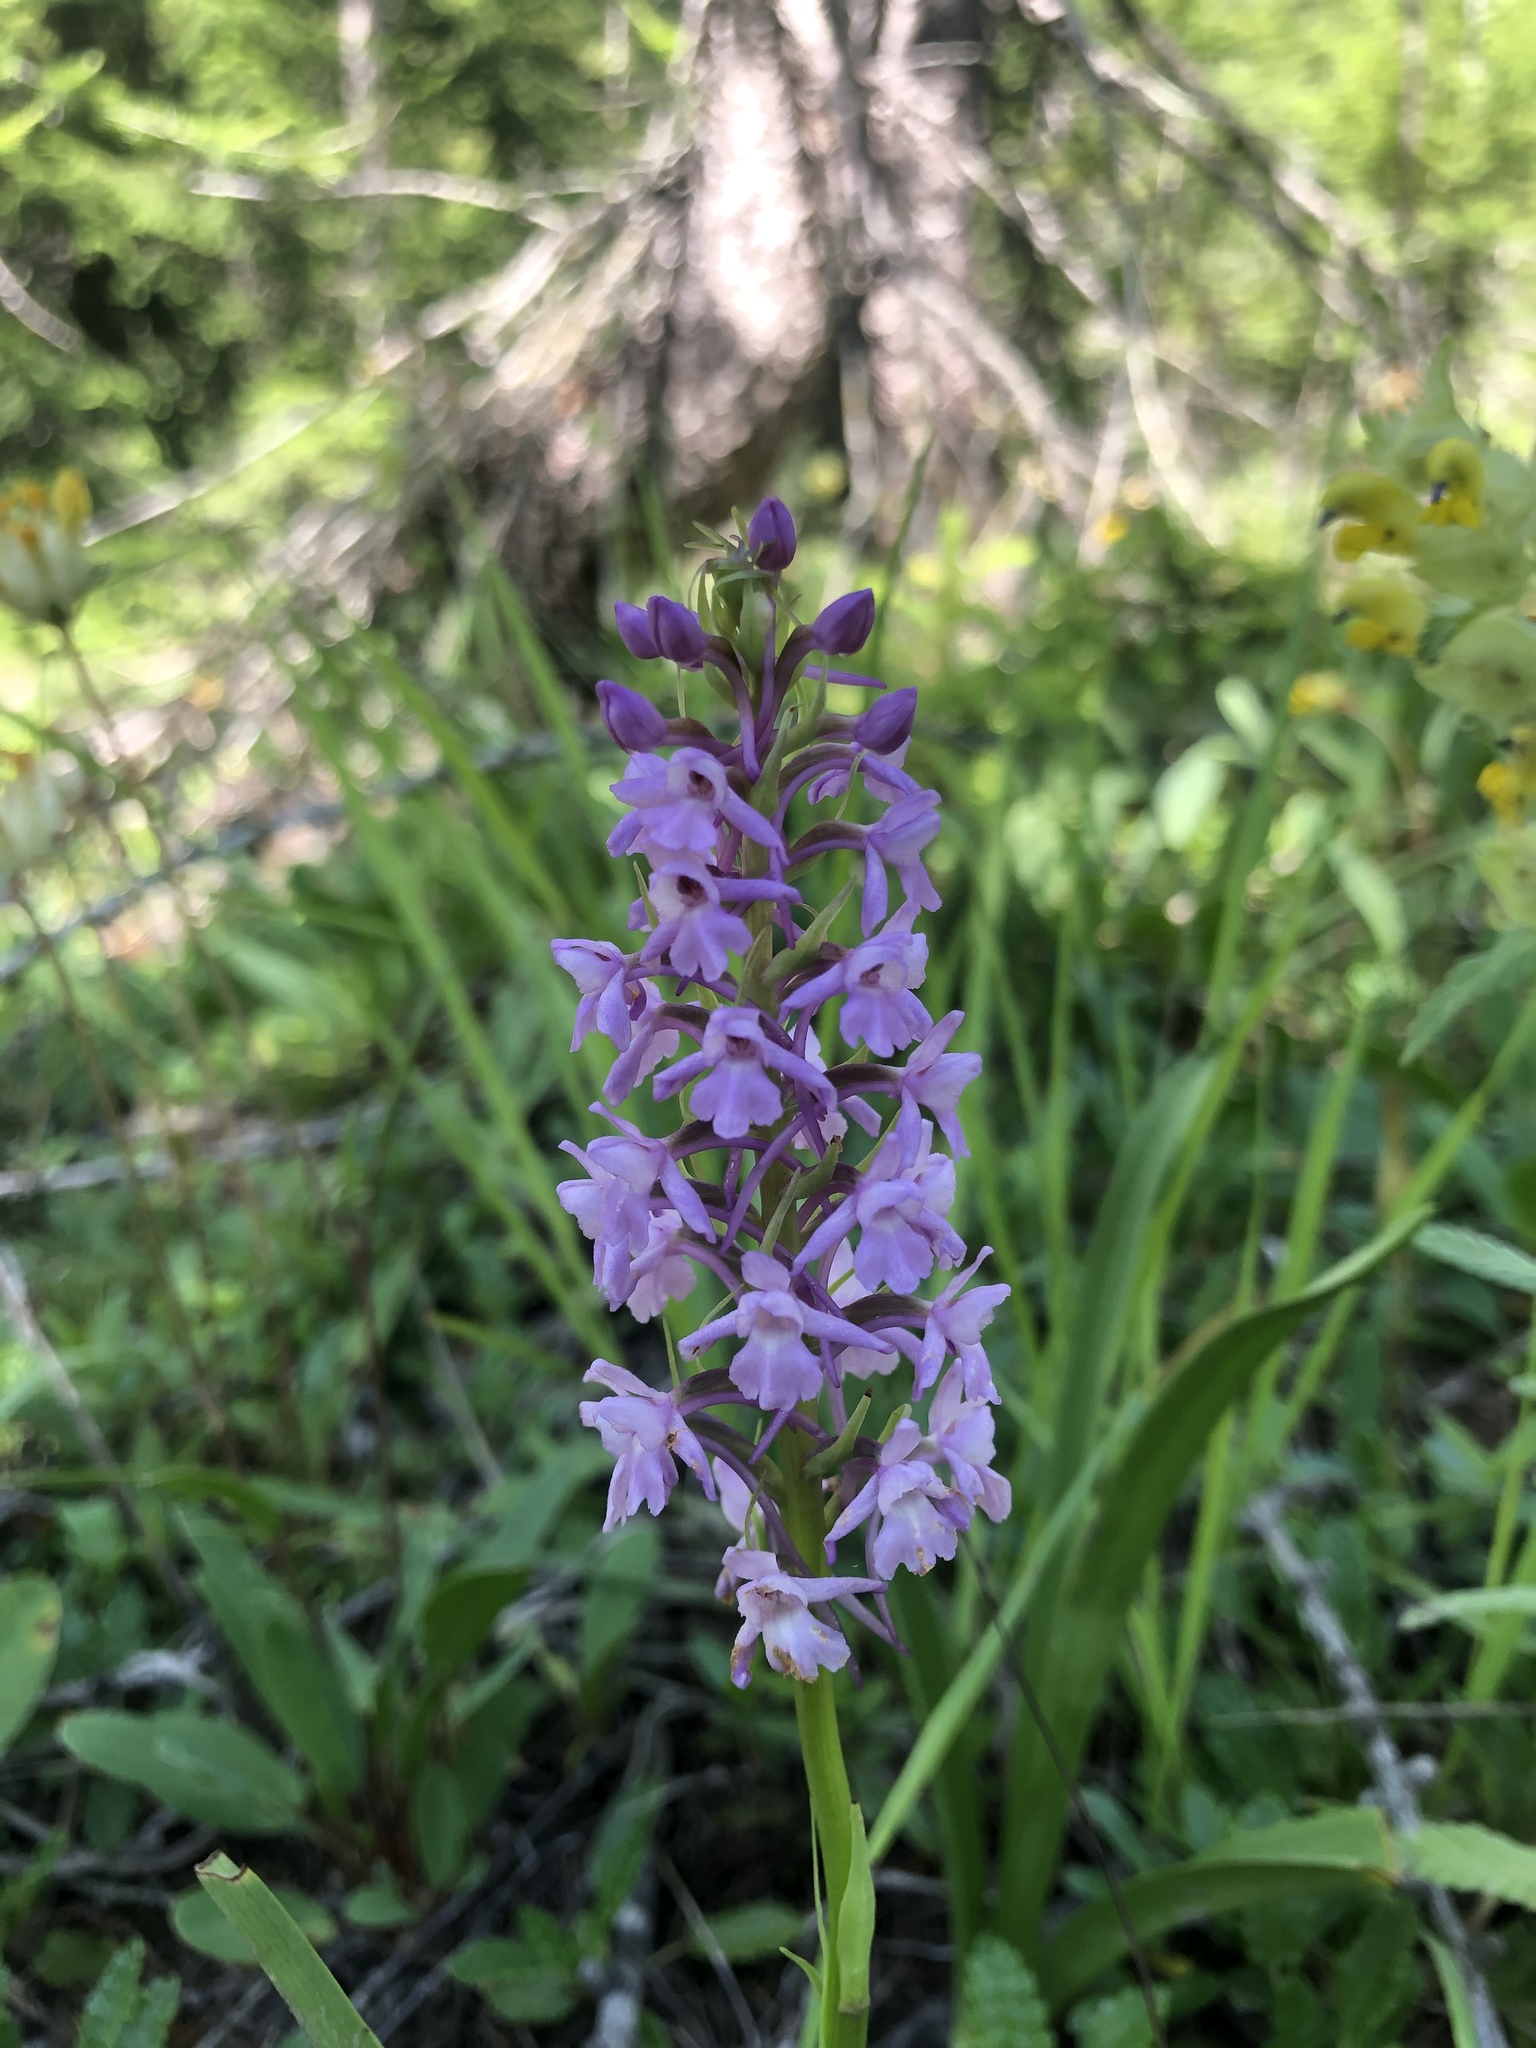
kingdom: Plantae
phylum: Tracheophyta
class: Liliopsida
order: Asparagales
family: Orchidaceae
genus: Gymnadenia
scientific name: Gymnadenia conopsea
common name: Fragrant orchid
